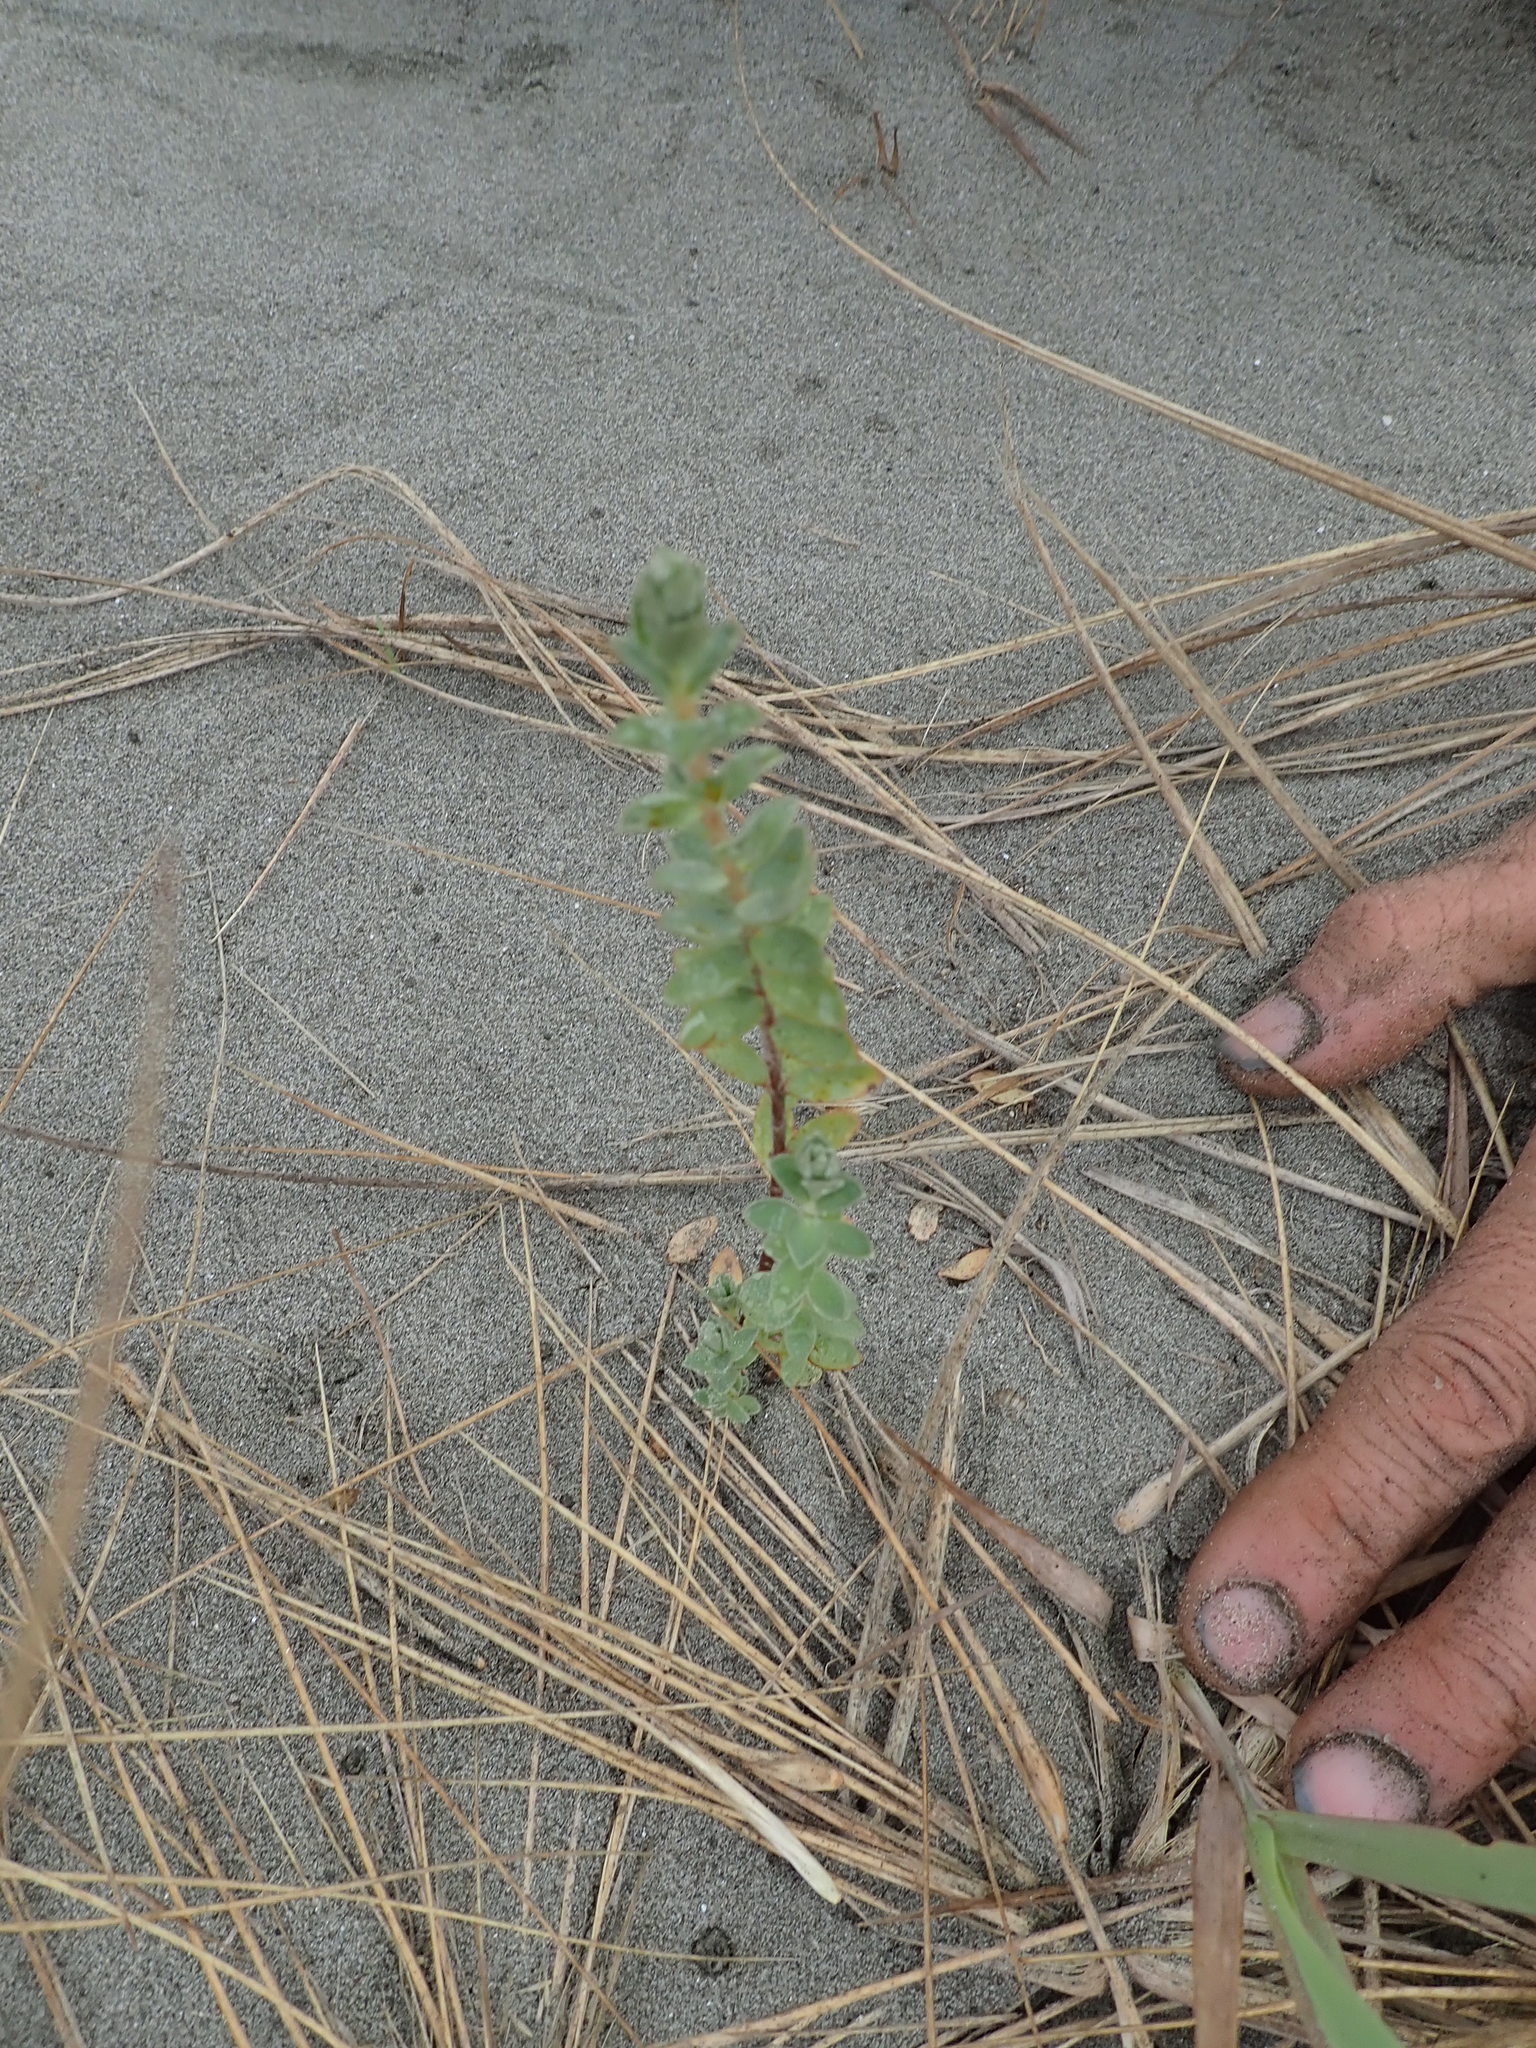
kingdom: Plantae
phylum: Tracheophyta
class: Magnoliopsida
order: Malvales
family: Thymelaeaceae
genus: Pimelea
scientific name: Pimelea villosa
